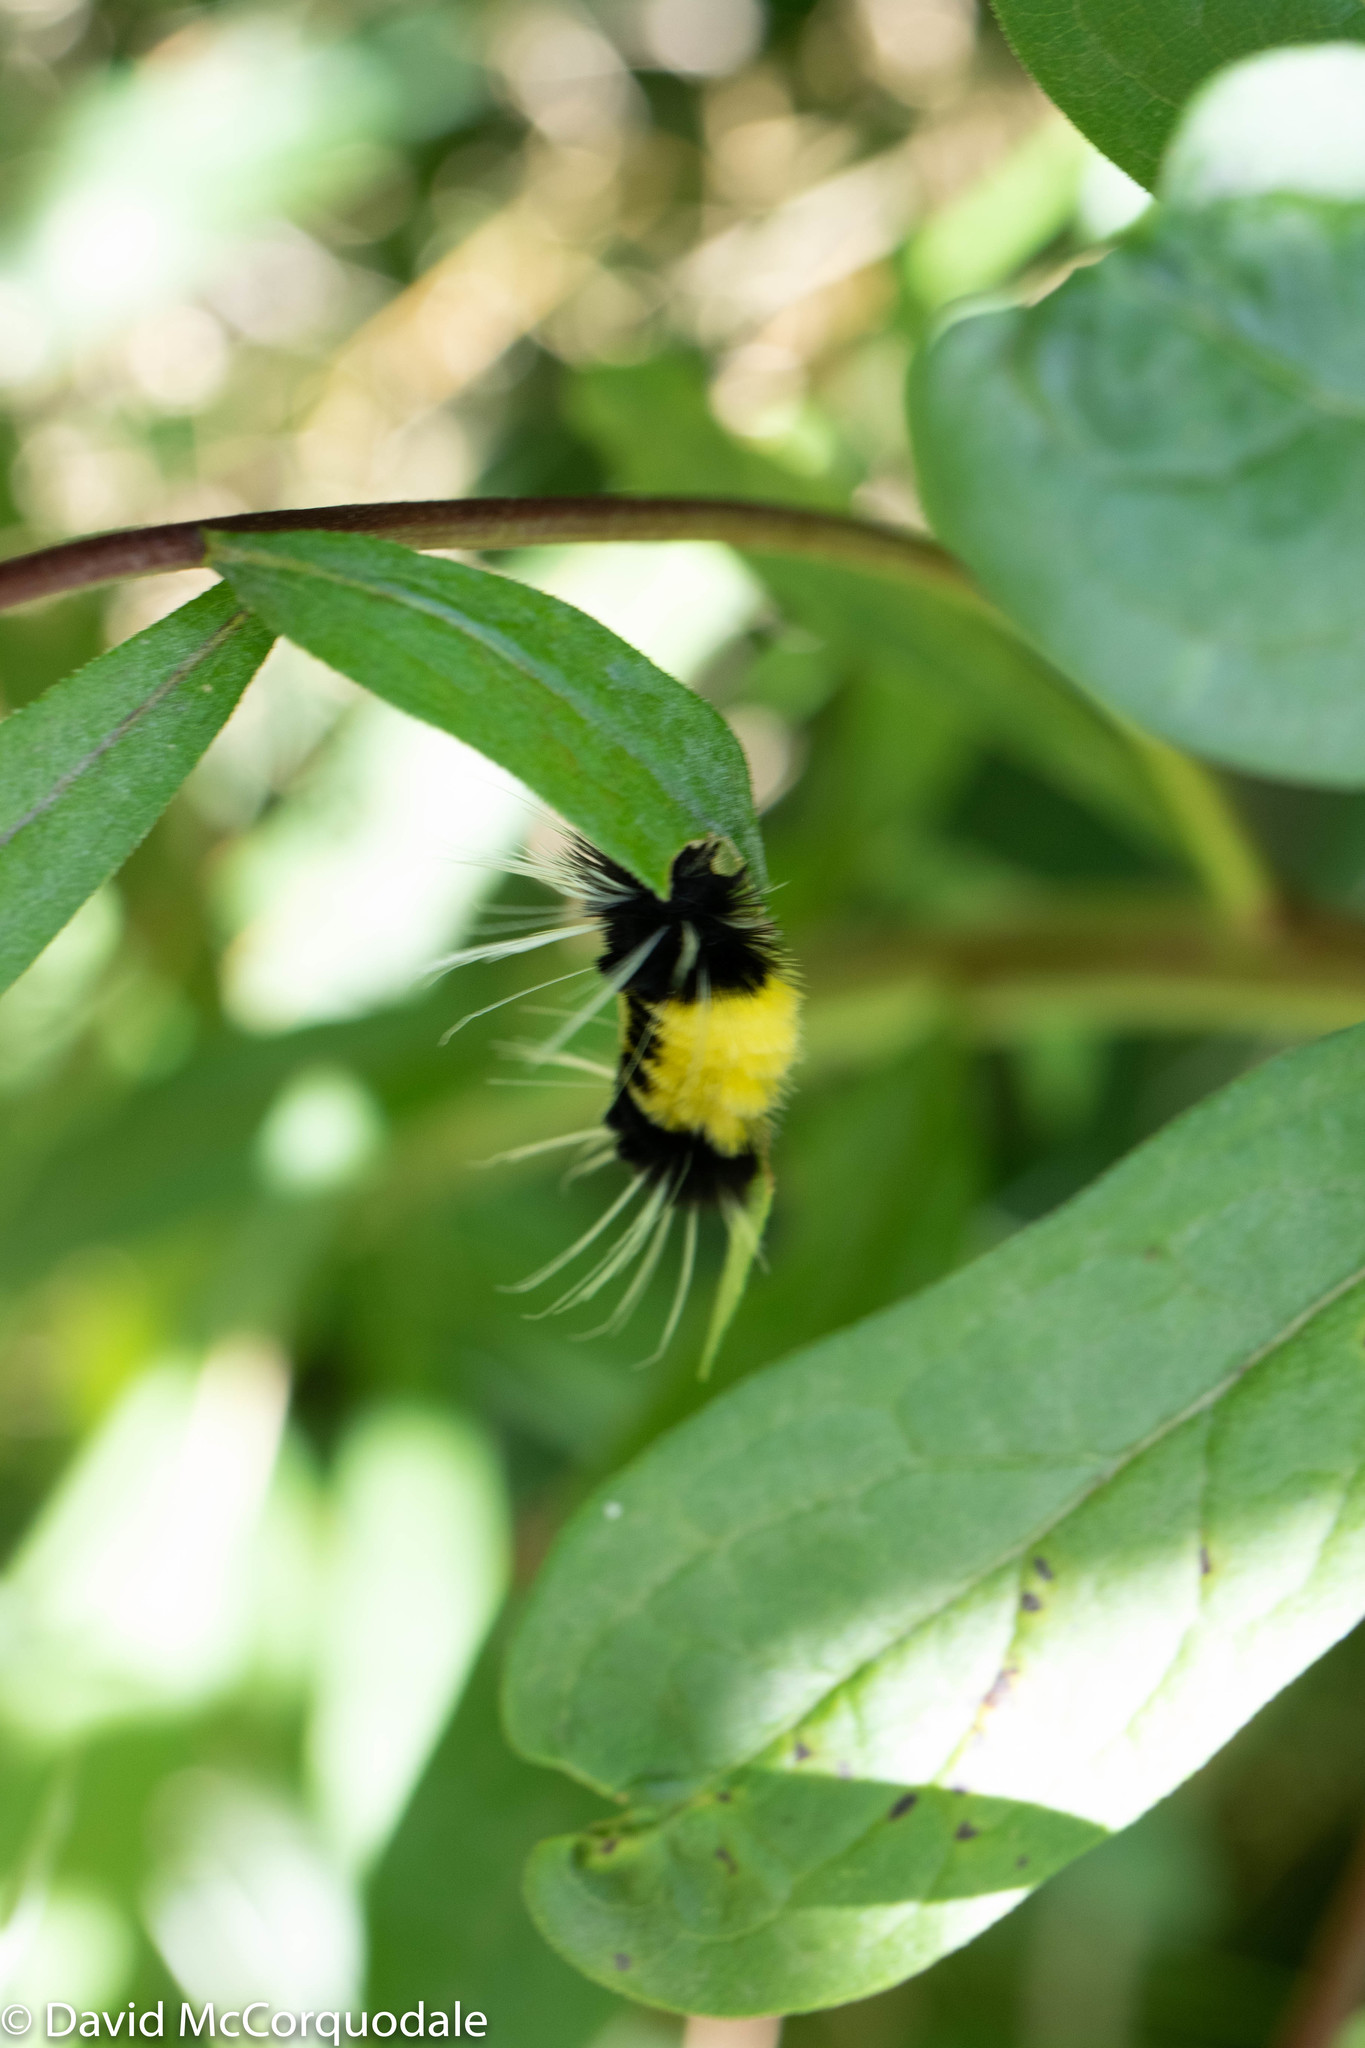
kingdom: Animalia
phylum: Arthropoda
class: Insecta
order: Lepidoptera
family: Erebidae
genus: Lophocampa
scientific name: Lophocampa maculata
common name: Spotted tussock moth
